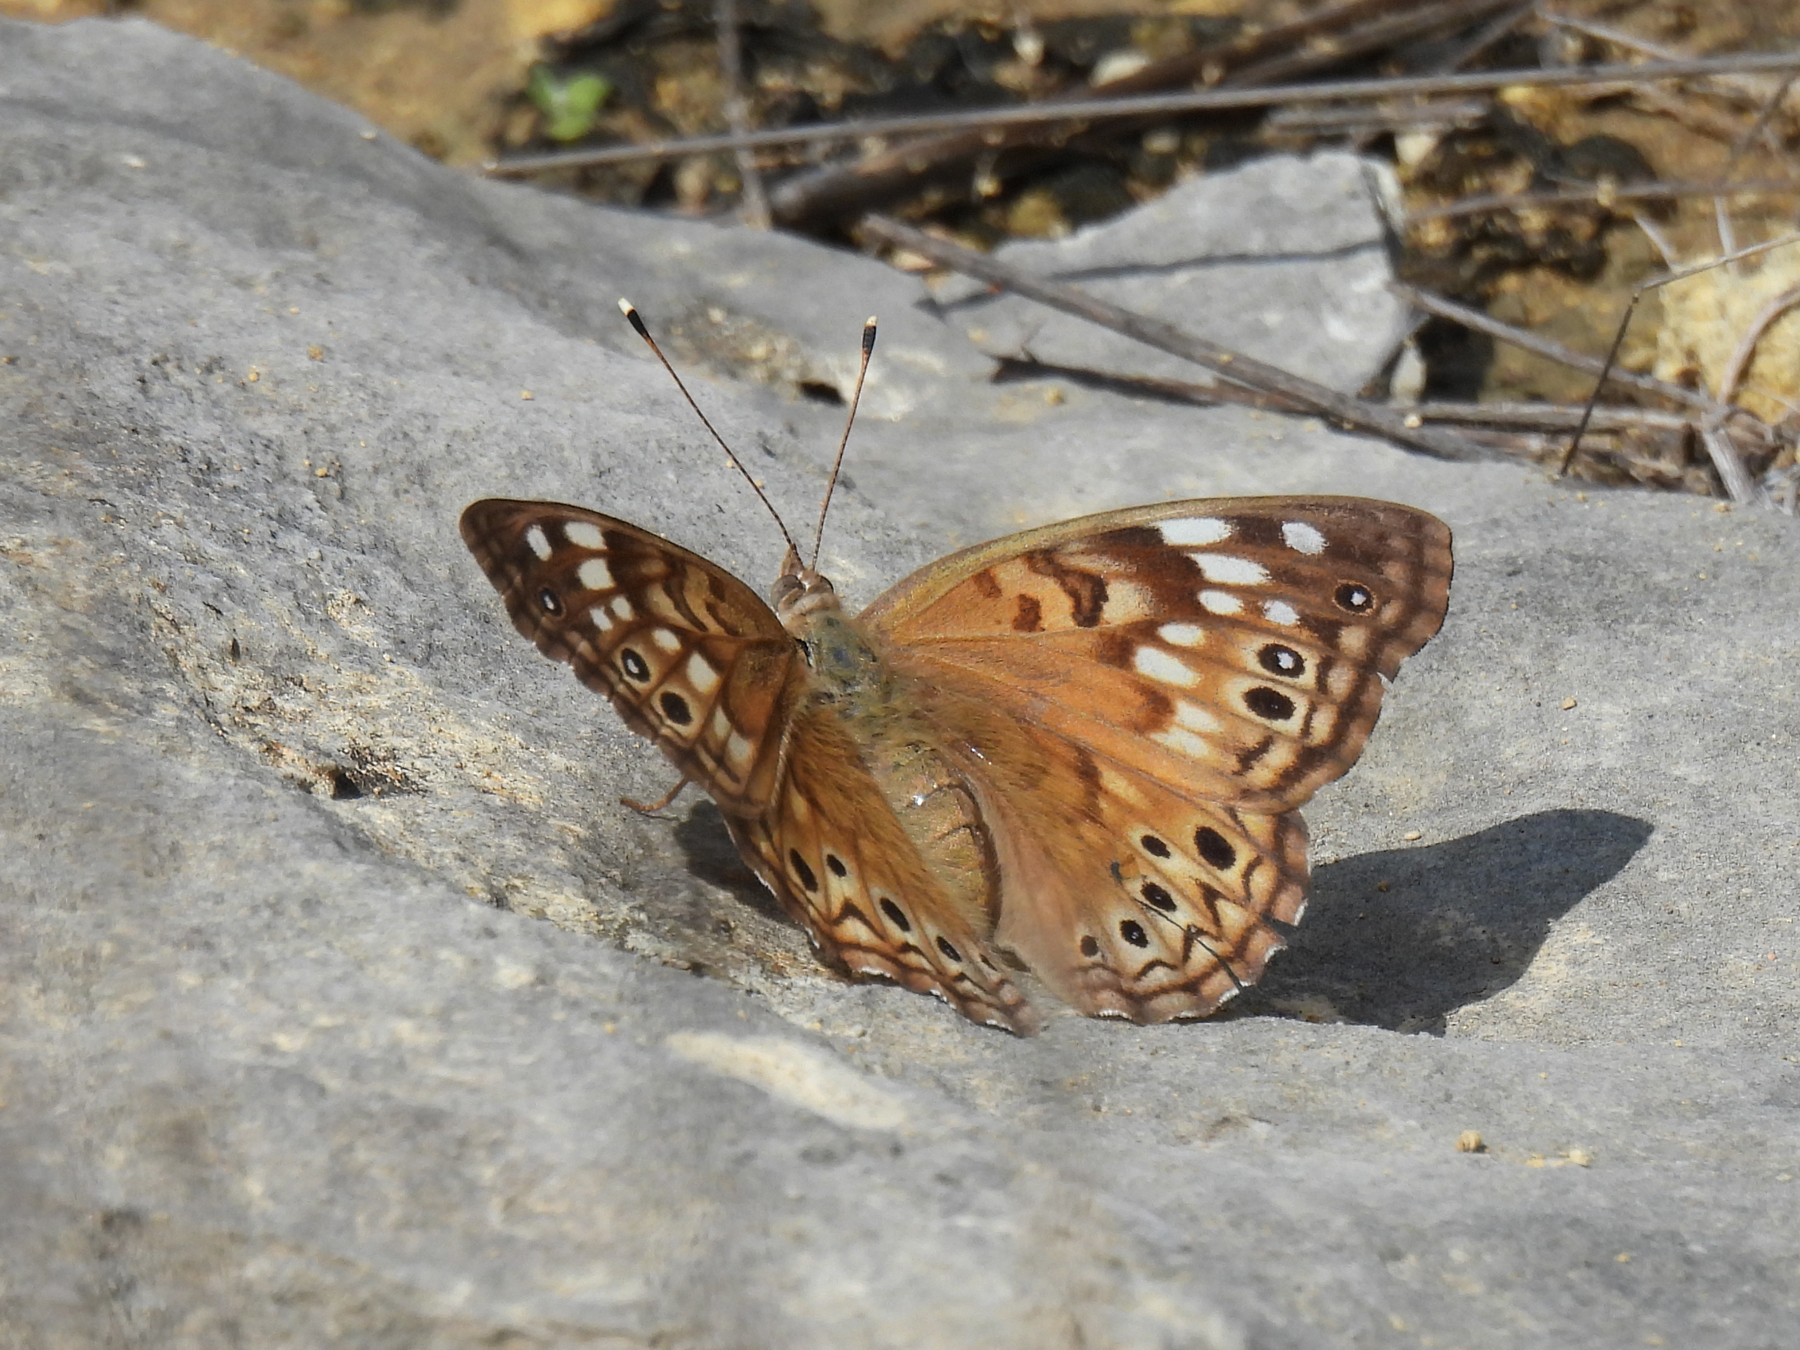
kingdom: Animalia
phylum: Arthropoda
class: Insecta
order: Lepidoptera
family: Nymphalidae
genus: Asterocampa
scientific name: Asterocampa celtis
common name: Hackberry emperor
